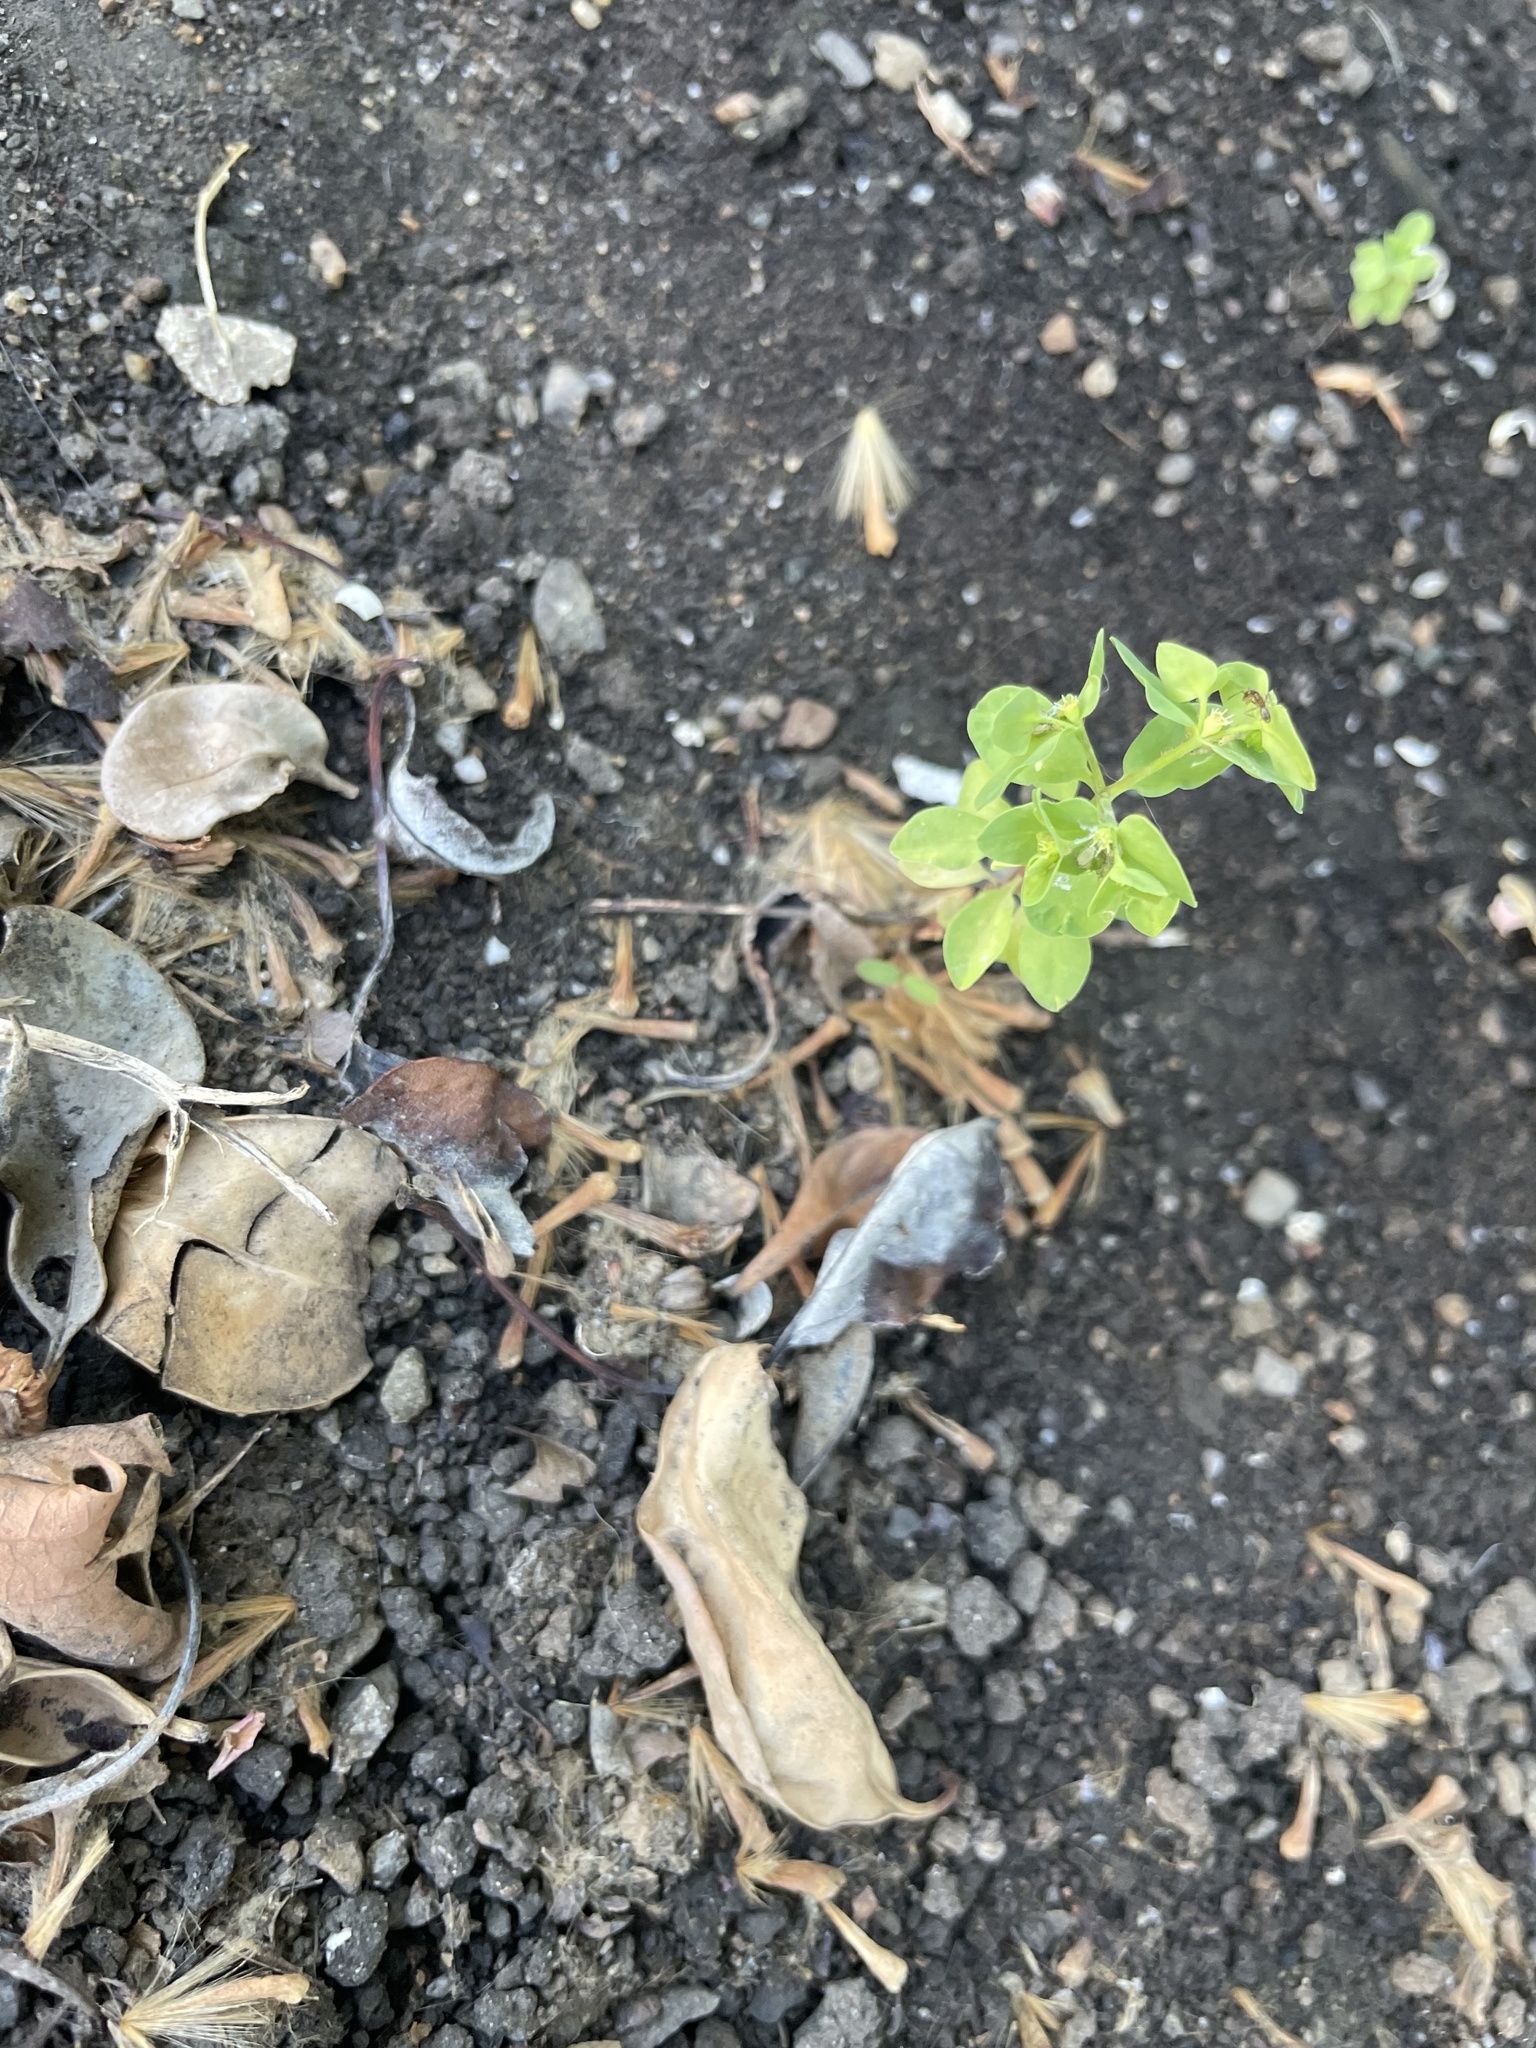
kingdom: Plantae
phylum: Tracheophyta
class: Magnoliopsida
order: Malpighiales
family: Euphorbiaceae
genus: Euphorbia
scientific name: Euphorbia peplus
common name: Petty spurge
